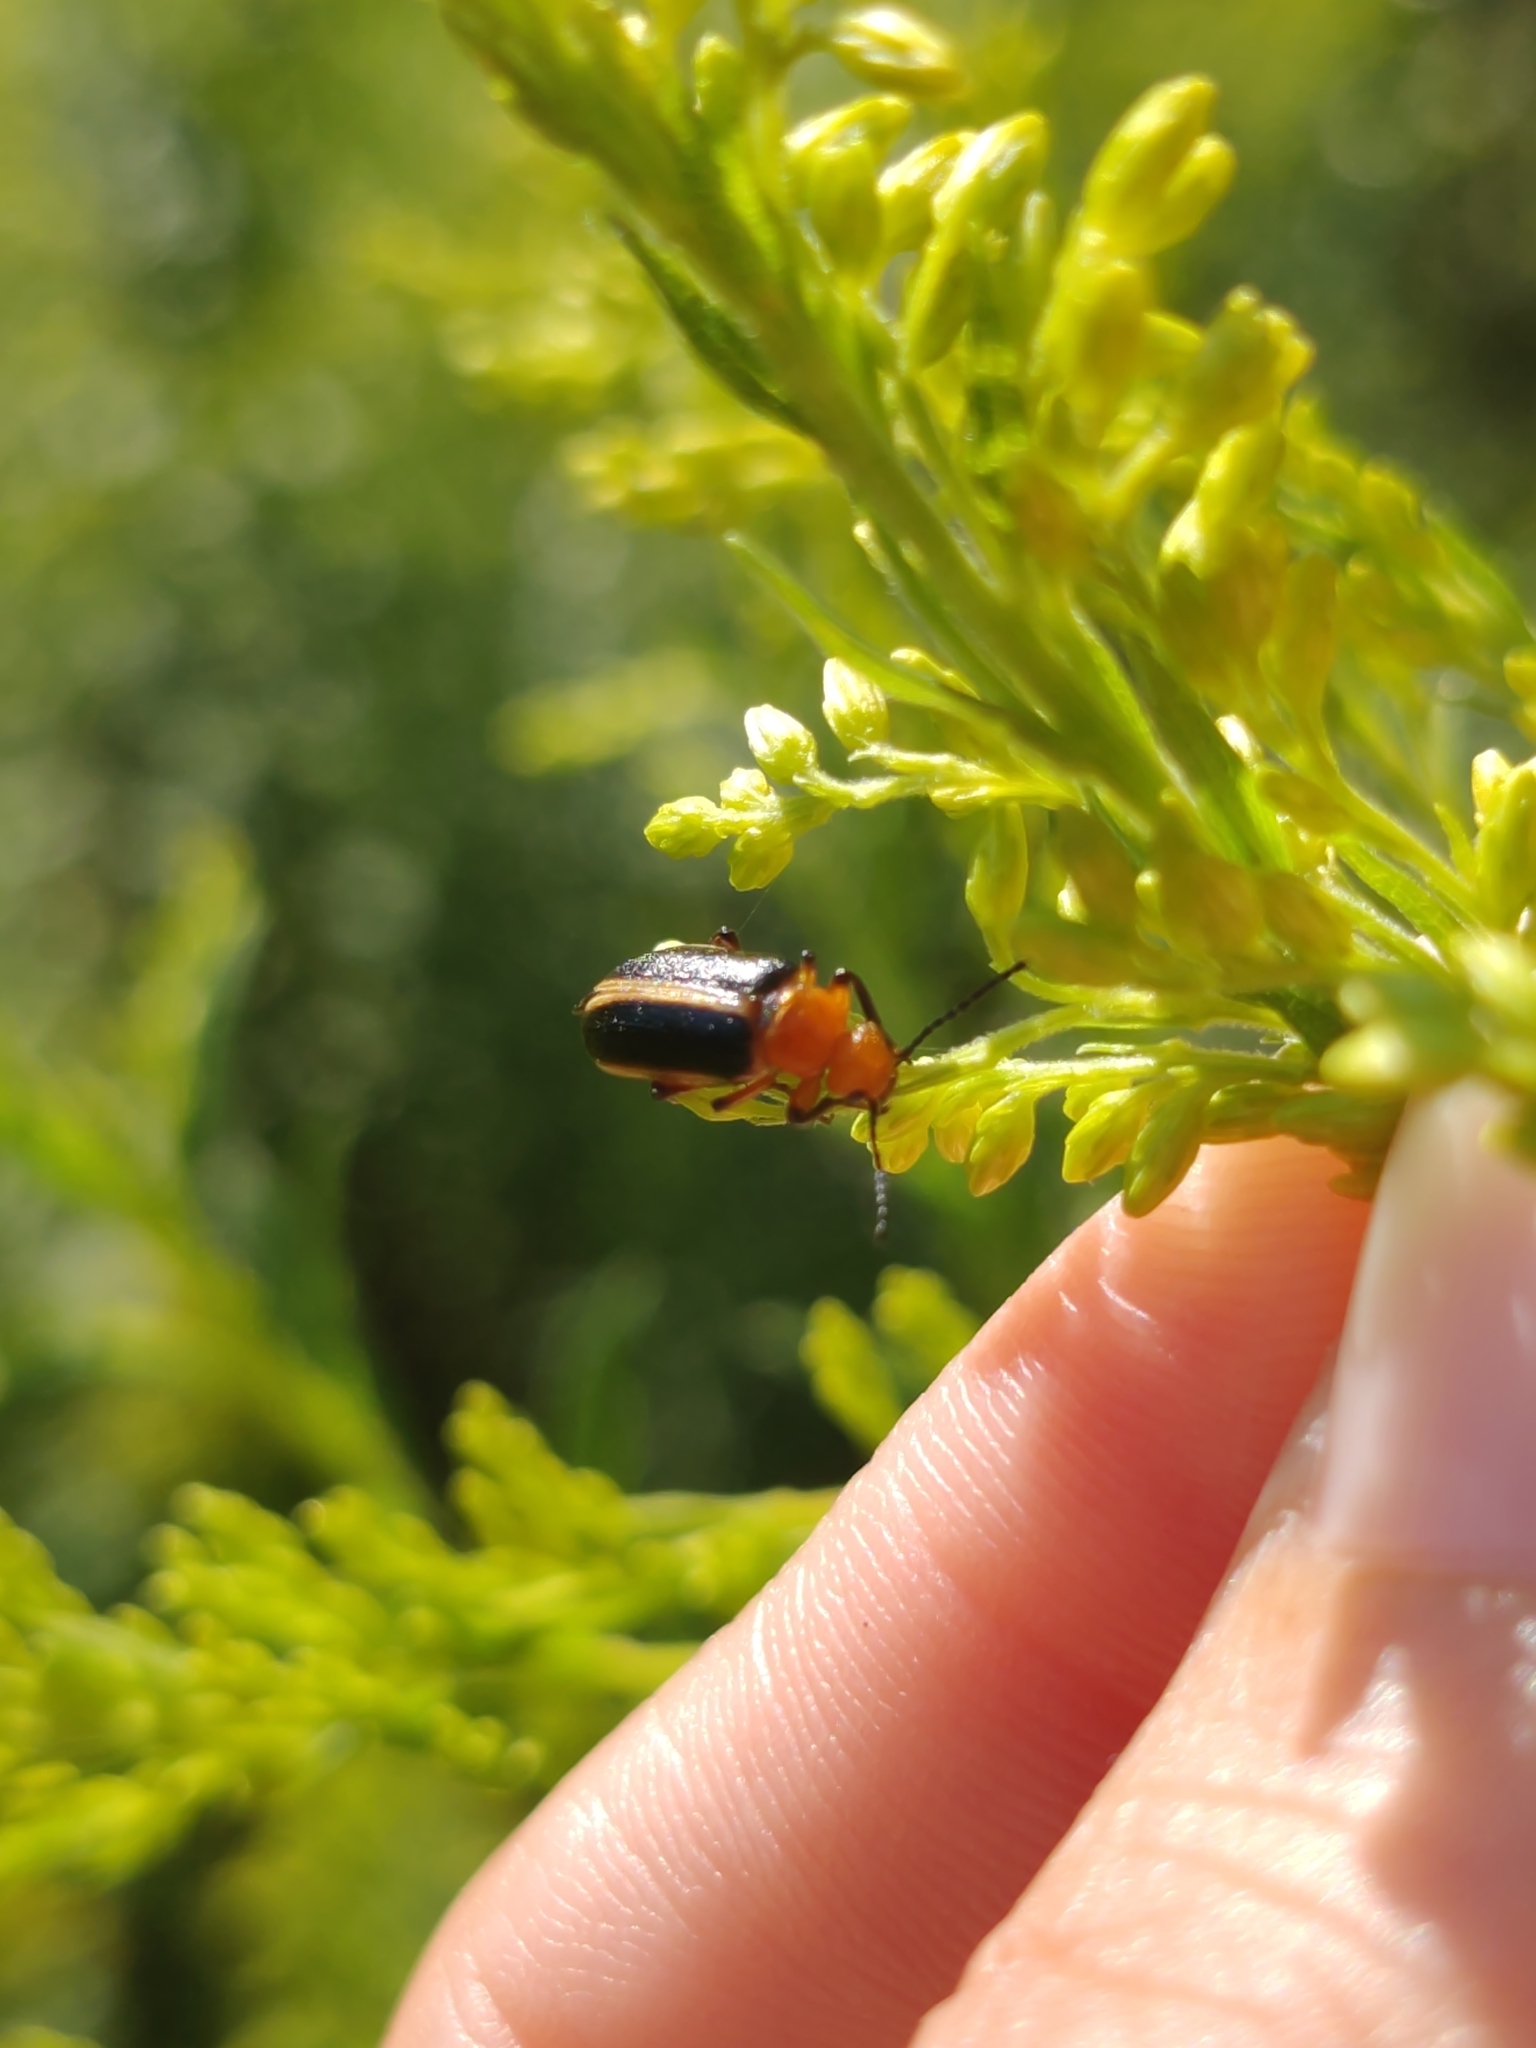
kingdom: Animalia
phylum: Arthropoda
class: Insecta
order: Coleoptera
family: Meloidae
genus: Zonitis
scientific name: Zonitis vittigera
